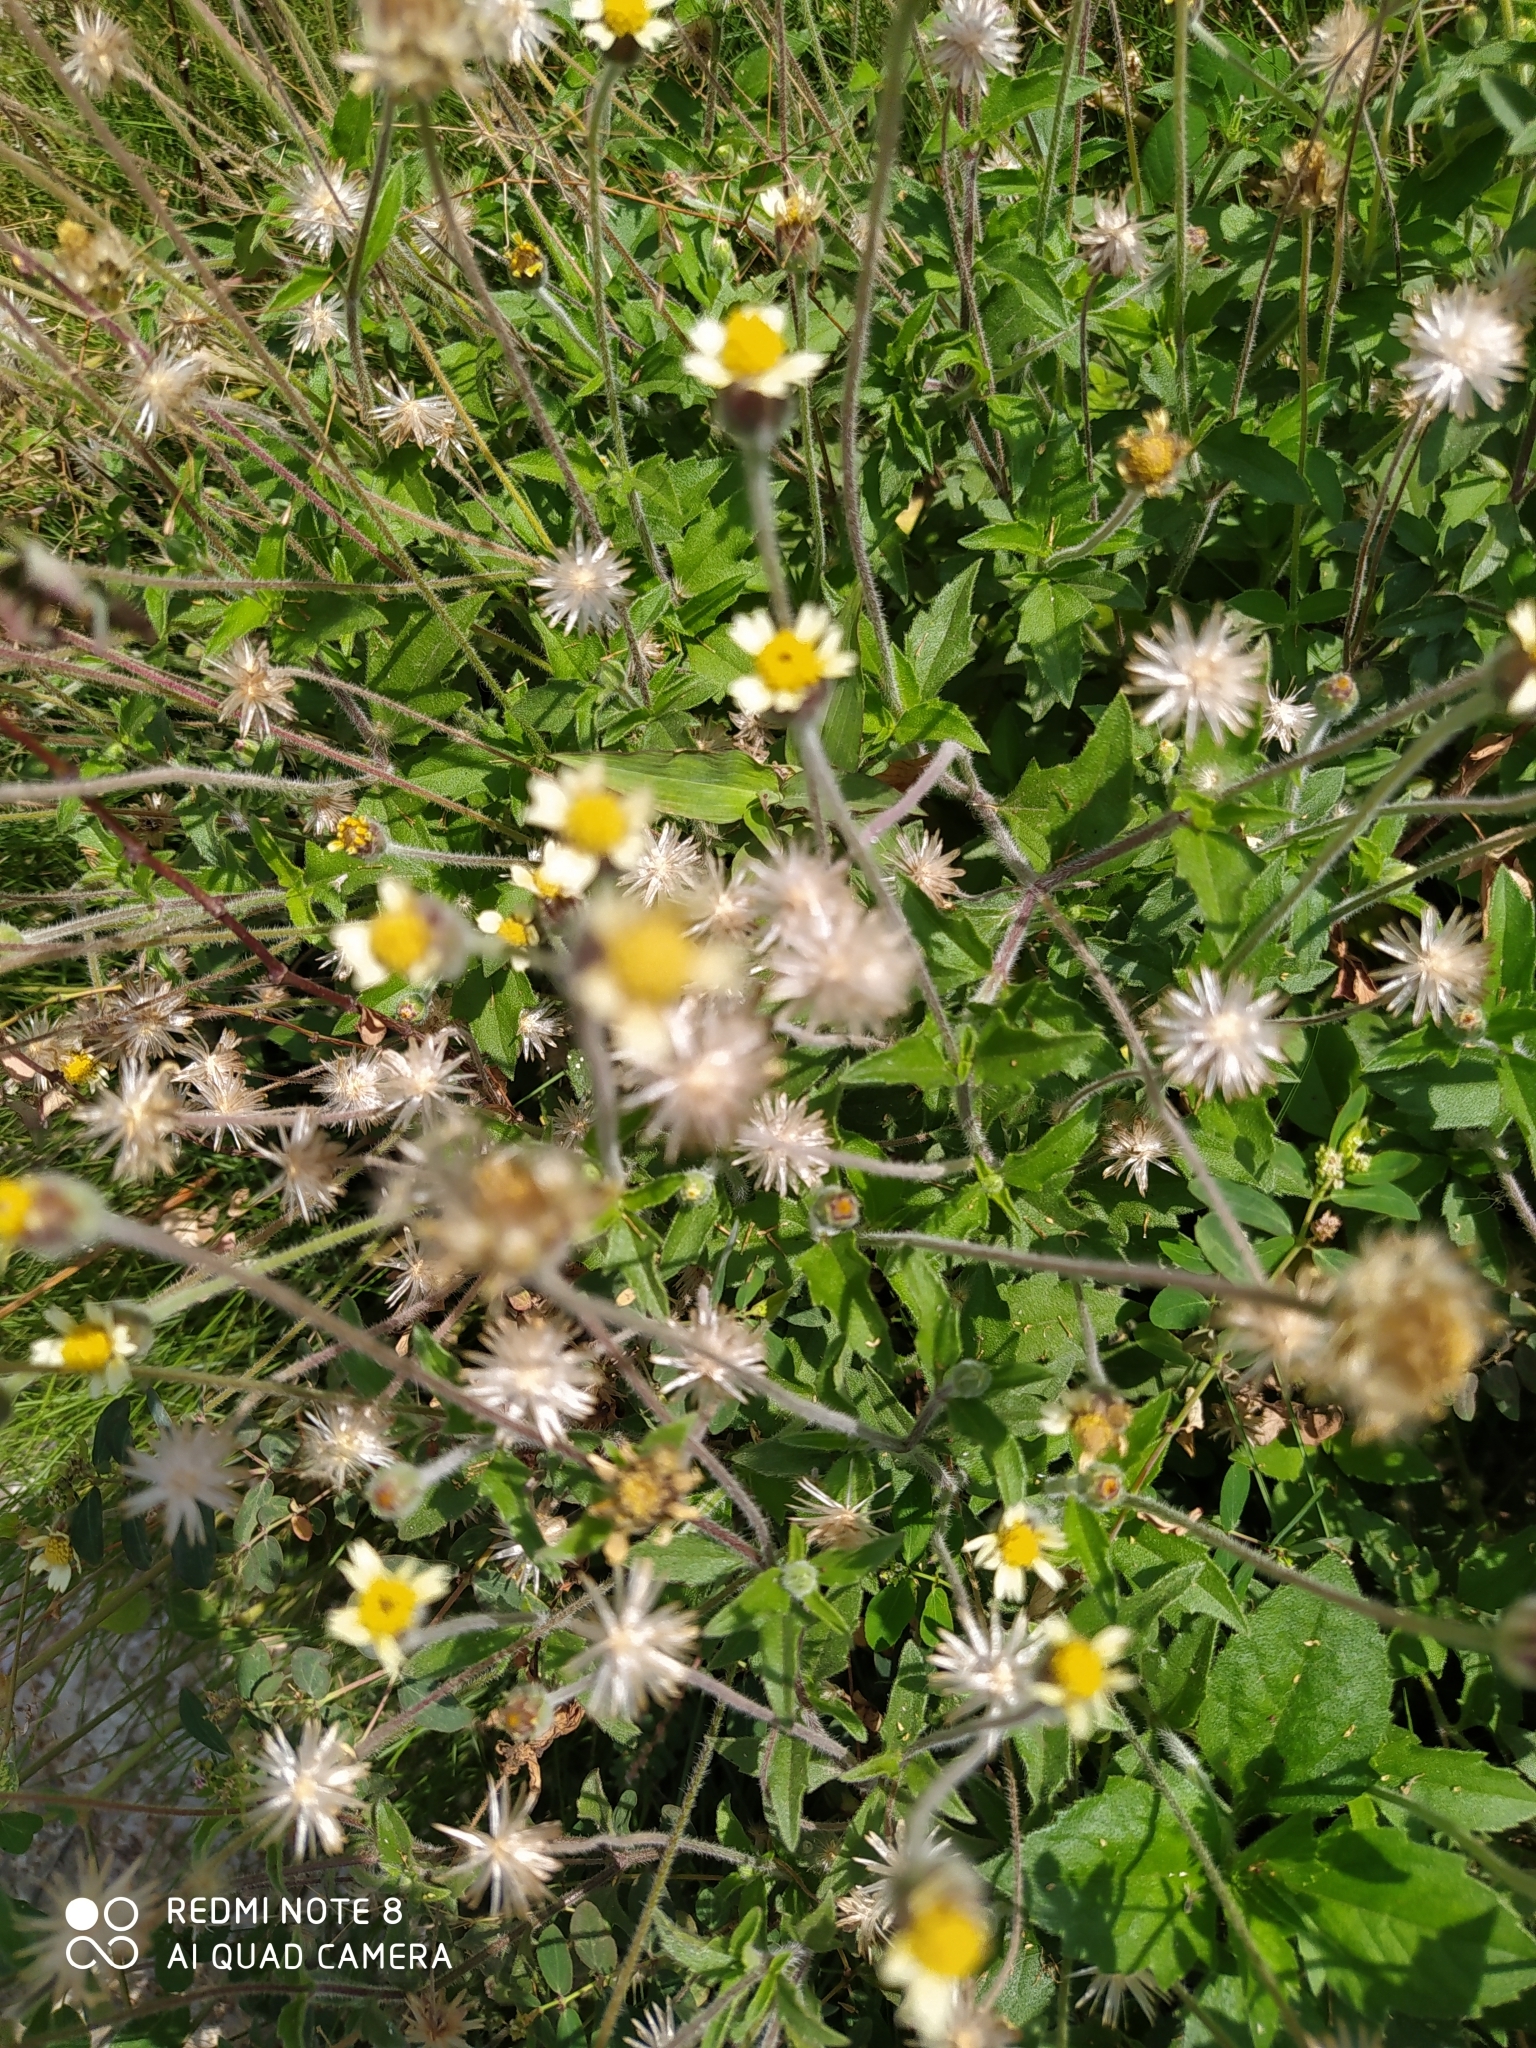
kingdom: Plantae
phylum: Tracheophyta
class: Magnoliopsida
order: Asterales
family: Asteraceae
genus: Tridax
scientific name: Tridax procumbens
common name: Coatbuttons
